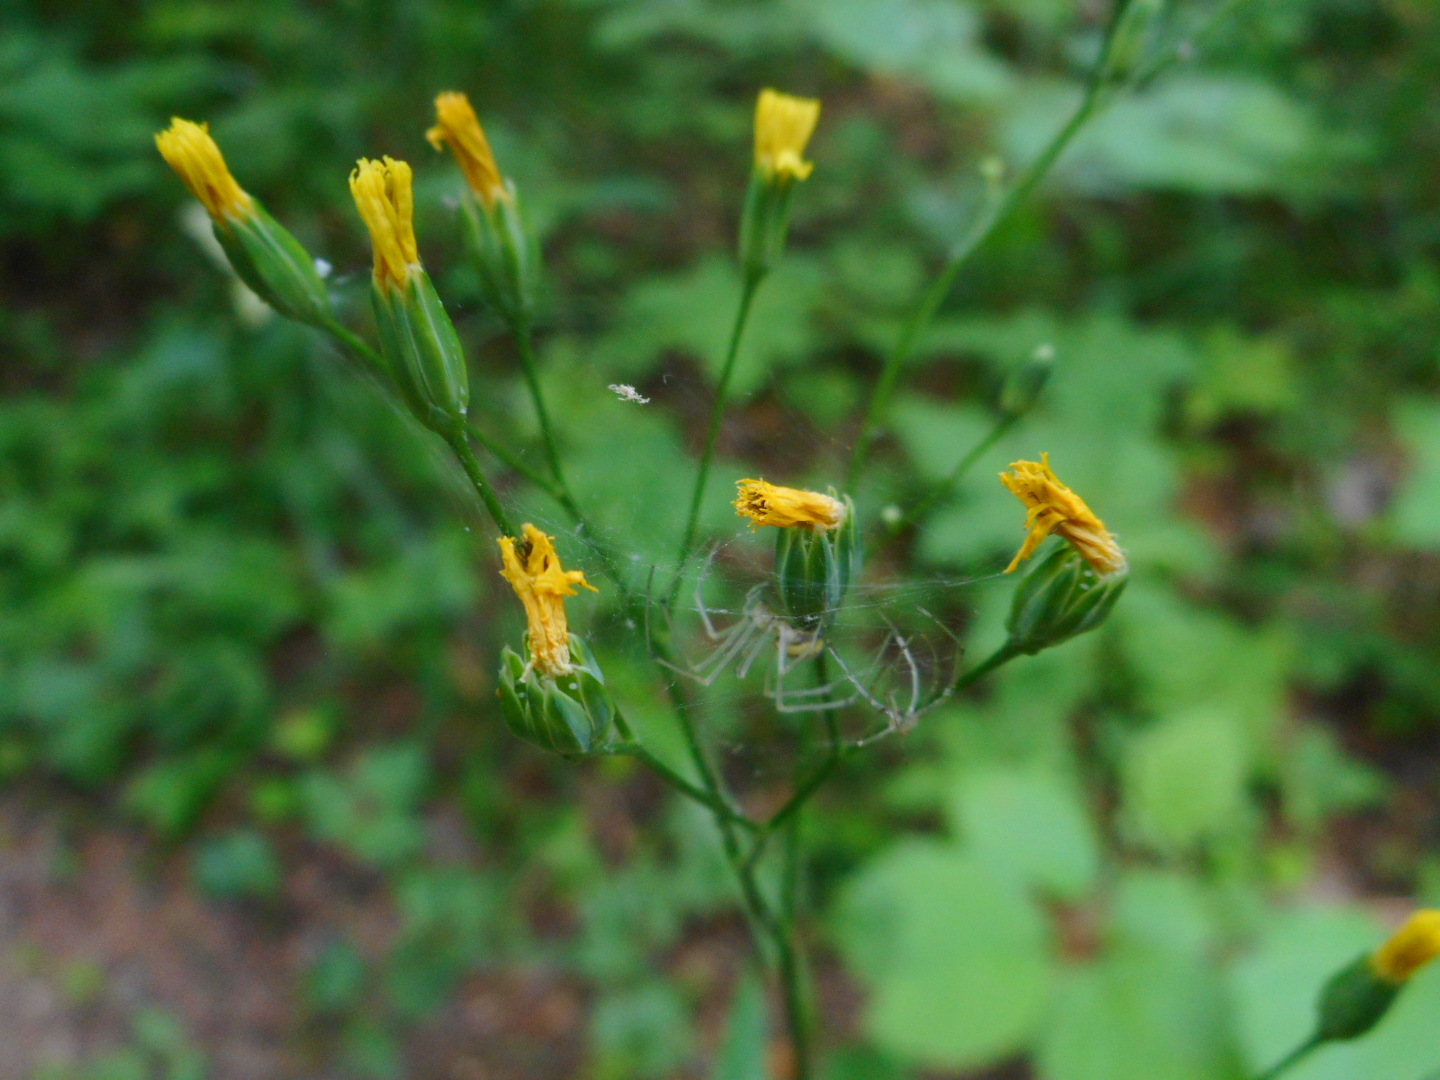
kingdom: Plantae
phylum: Tracheophyta
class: Magnoliopsida
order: Asterales
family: Asteraceae
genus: Lapsana
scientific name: Lapsana communis
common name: Nipplewort
